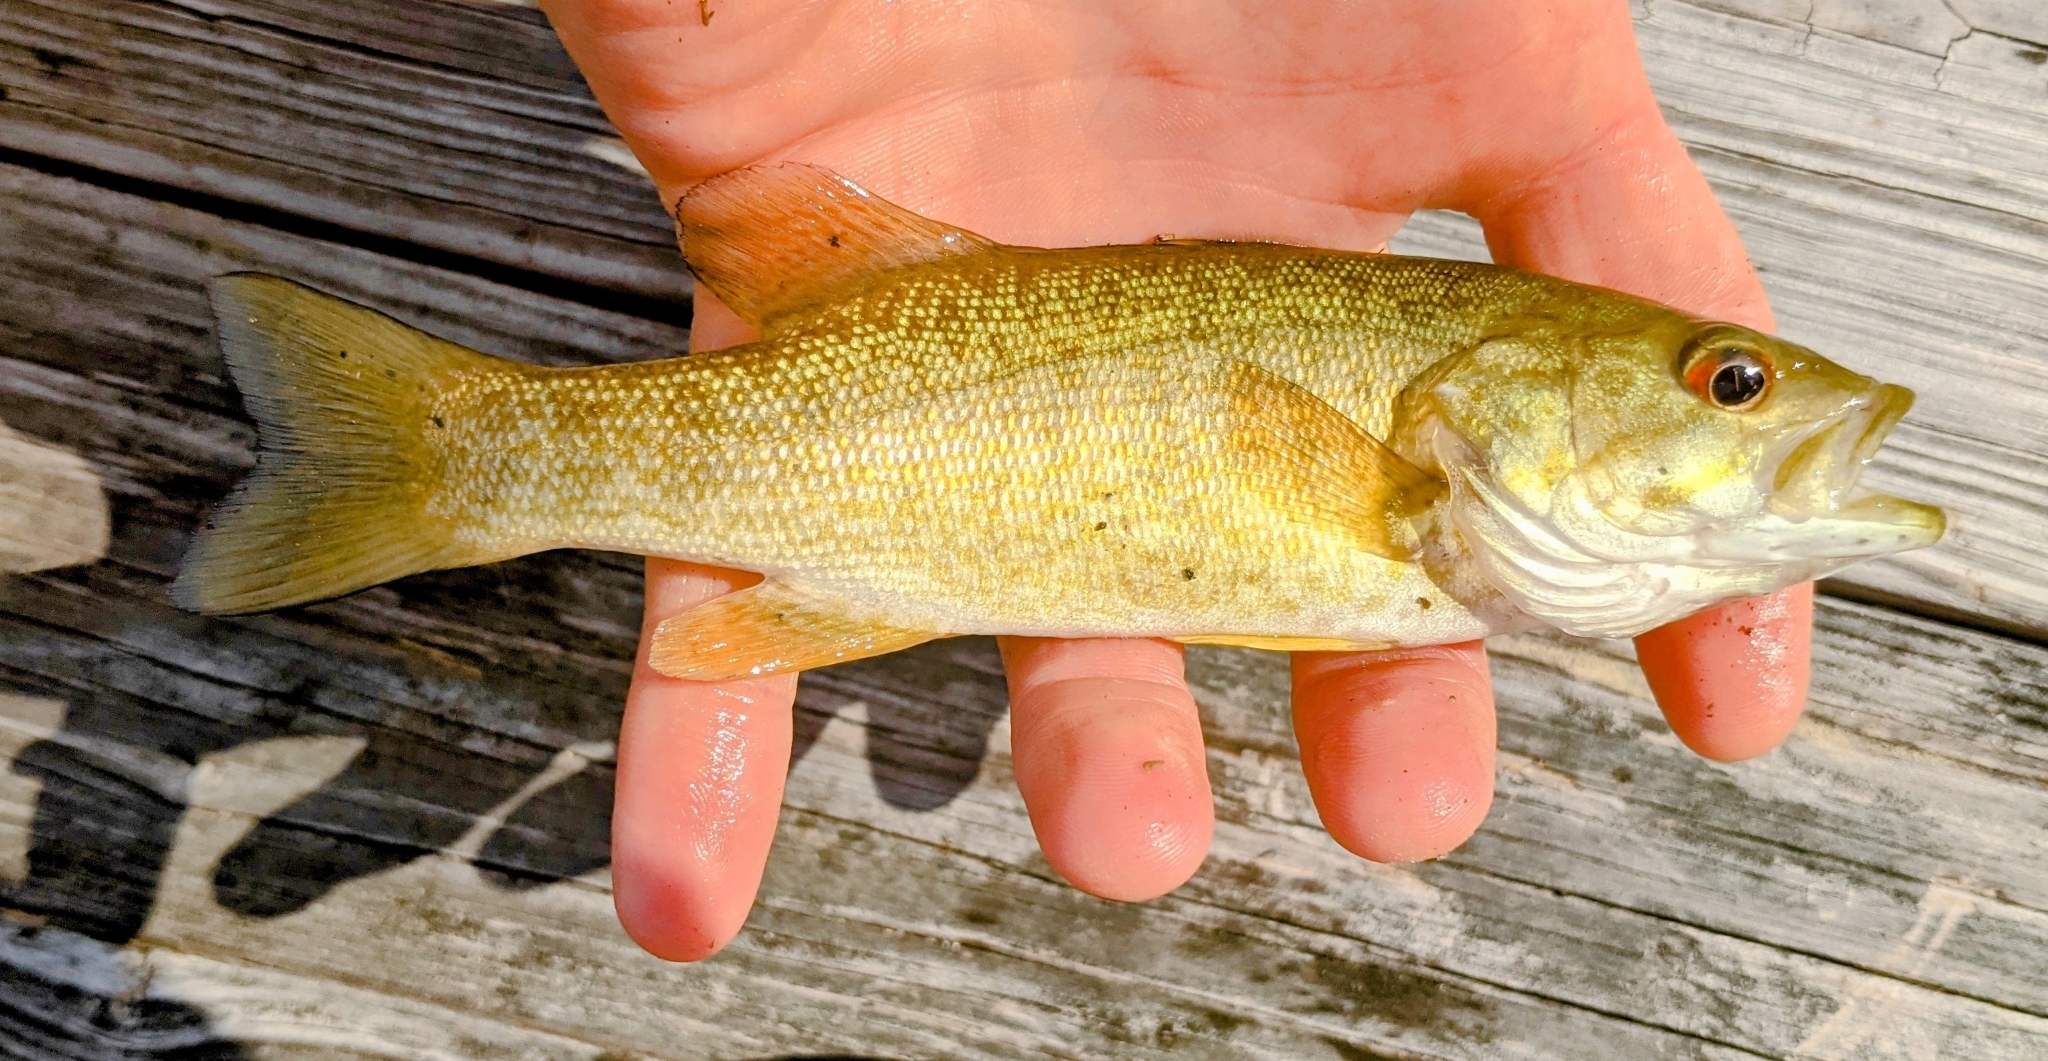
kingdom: Animalia
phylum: Chordata
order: Perciformes
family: Centrarchidae
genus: Micropterus
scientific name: Micropterus dolomieu
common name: Smallmouth bass
